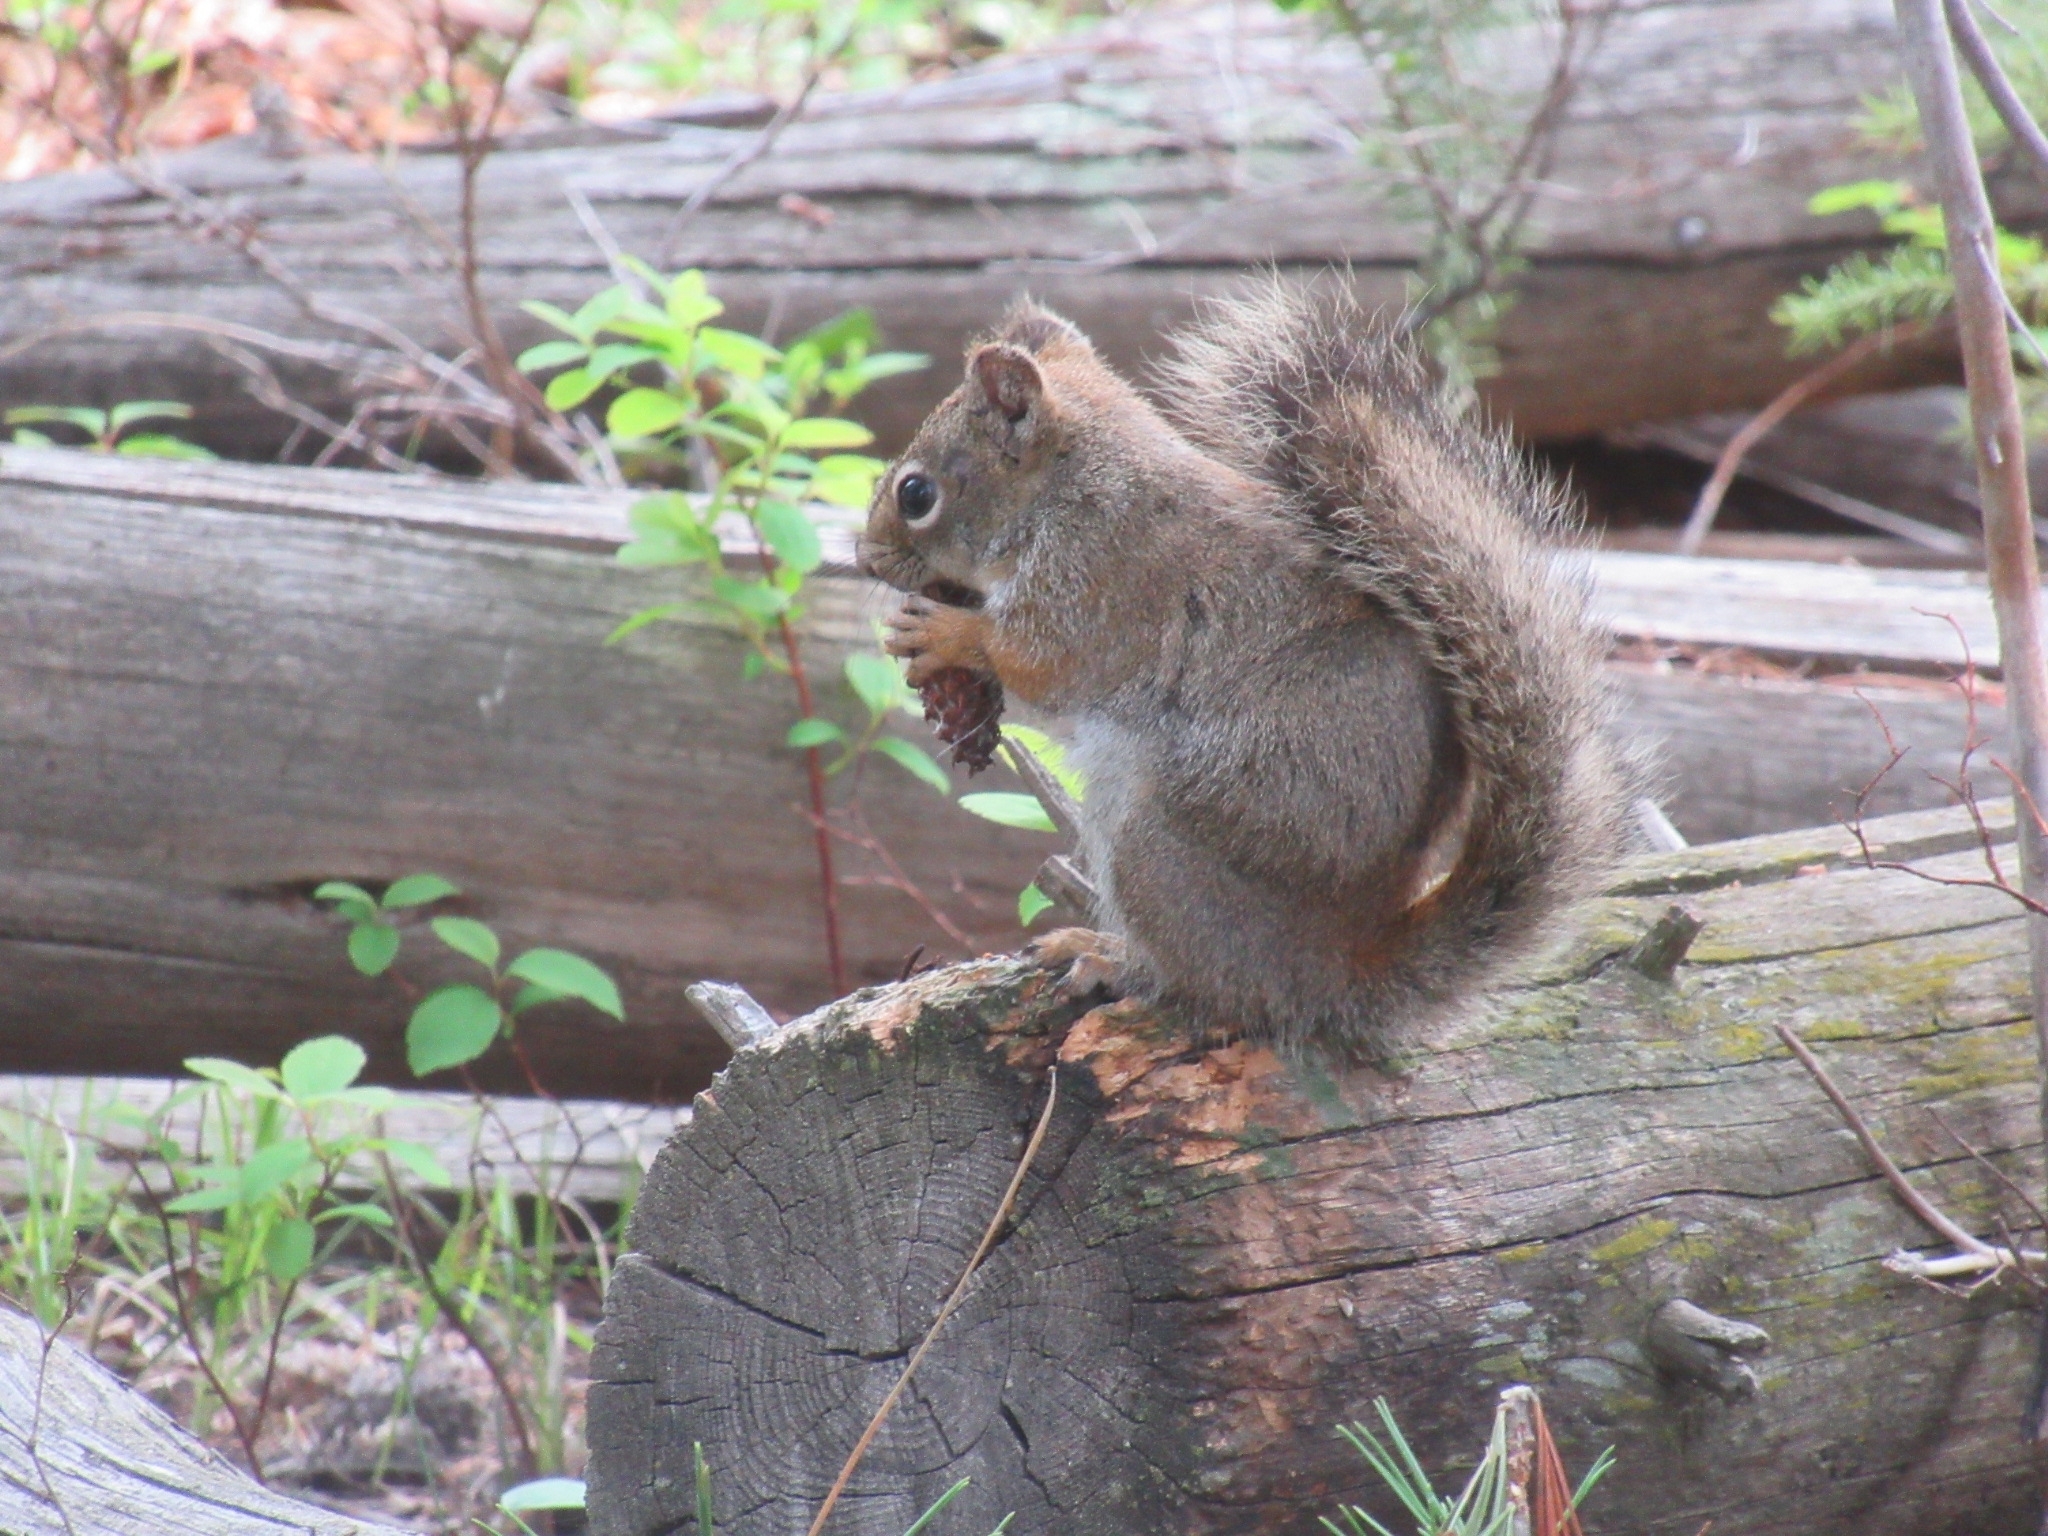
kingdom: Animalia
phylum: Chordata
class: Mammalia
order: Rodentia
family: Sciuridae
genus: Tamiasciurus
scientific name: Tamiasciurus hudsonicus
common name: Red squirrel
